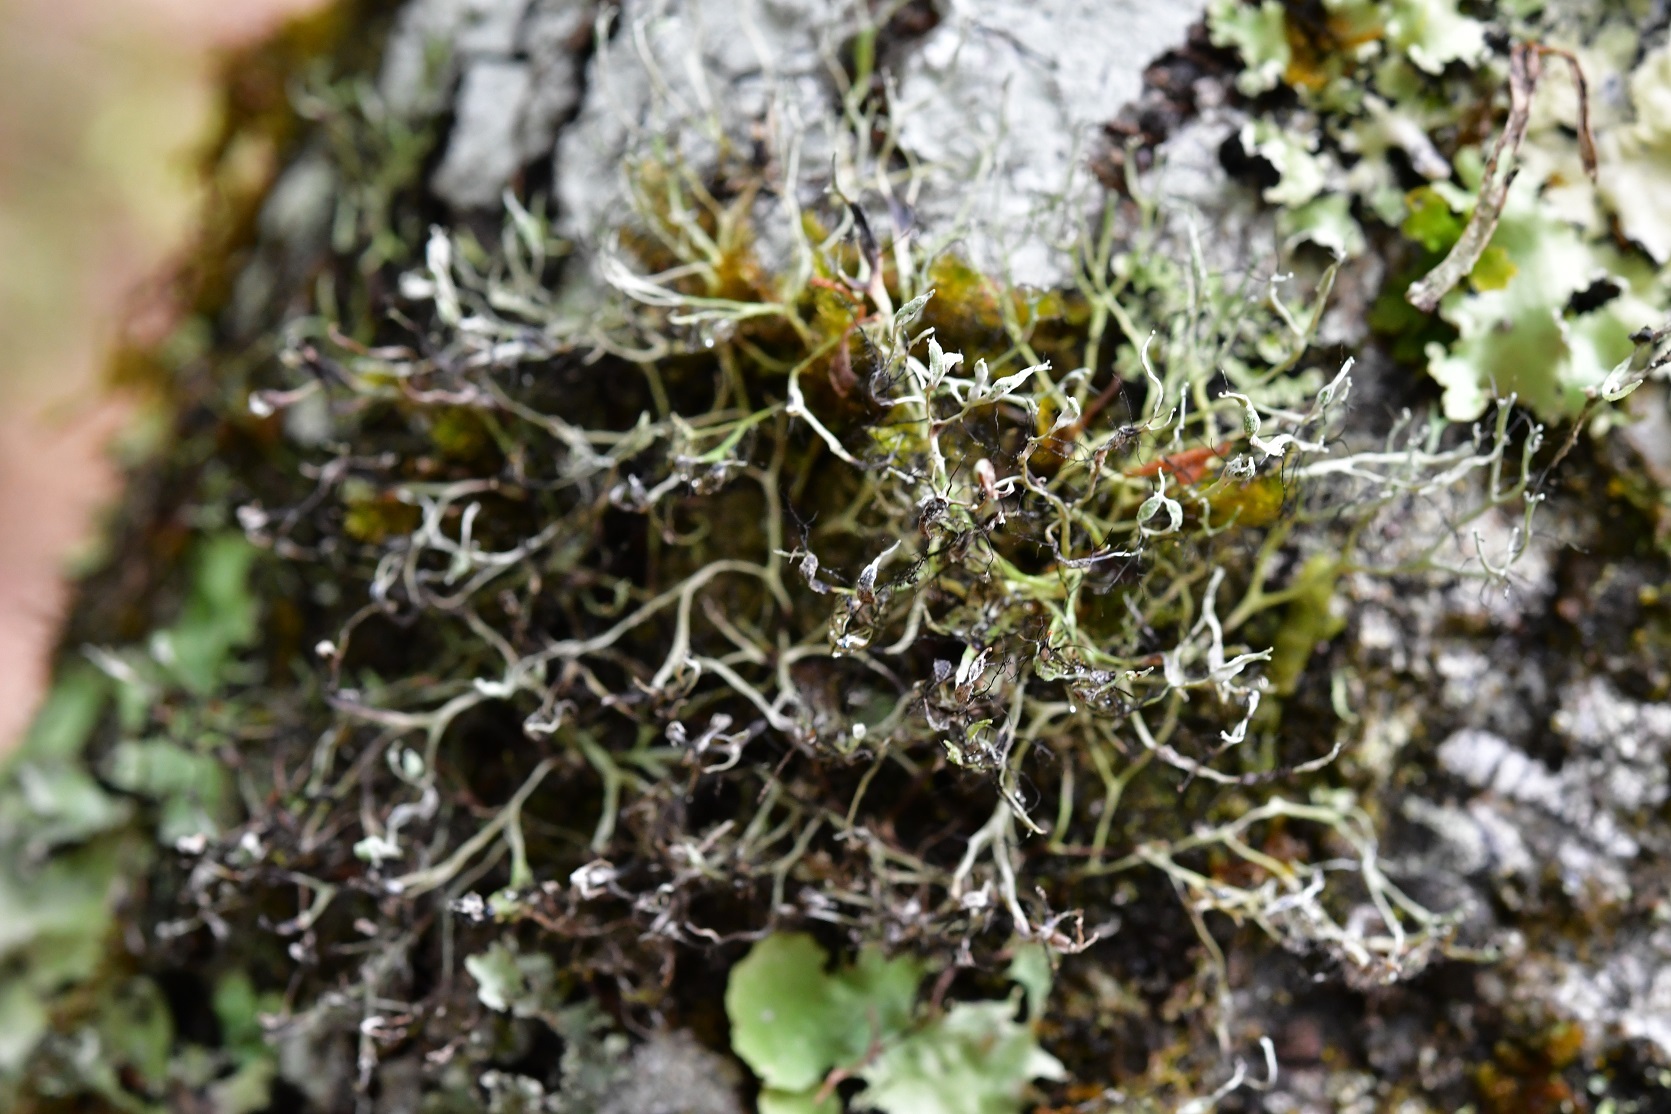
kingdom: Fungi
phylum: Ascomycota
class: Lecanoromycetes
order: Caliciales
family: Physciaceae
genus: Leucodermia
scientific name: Leucodermia boryi
